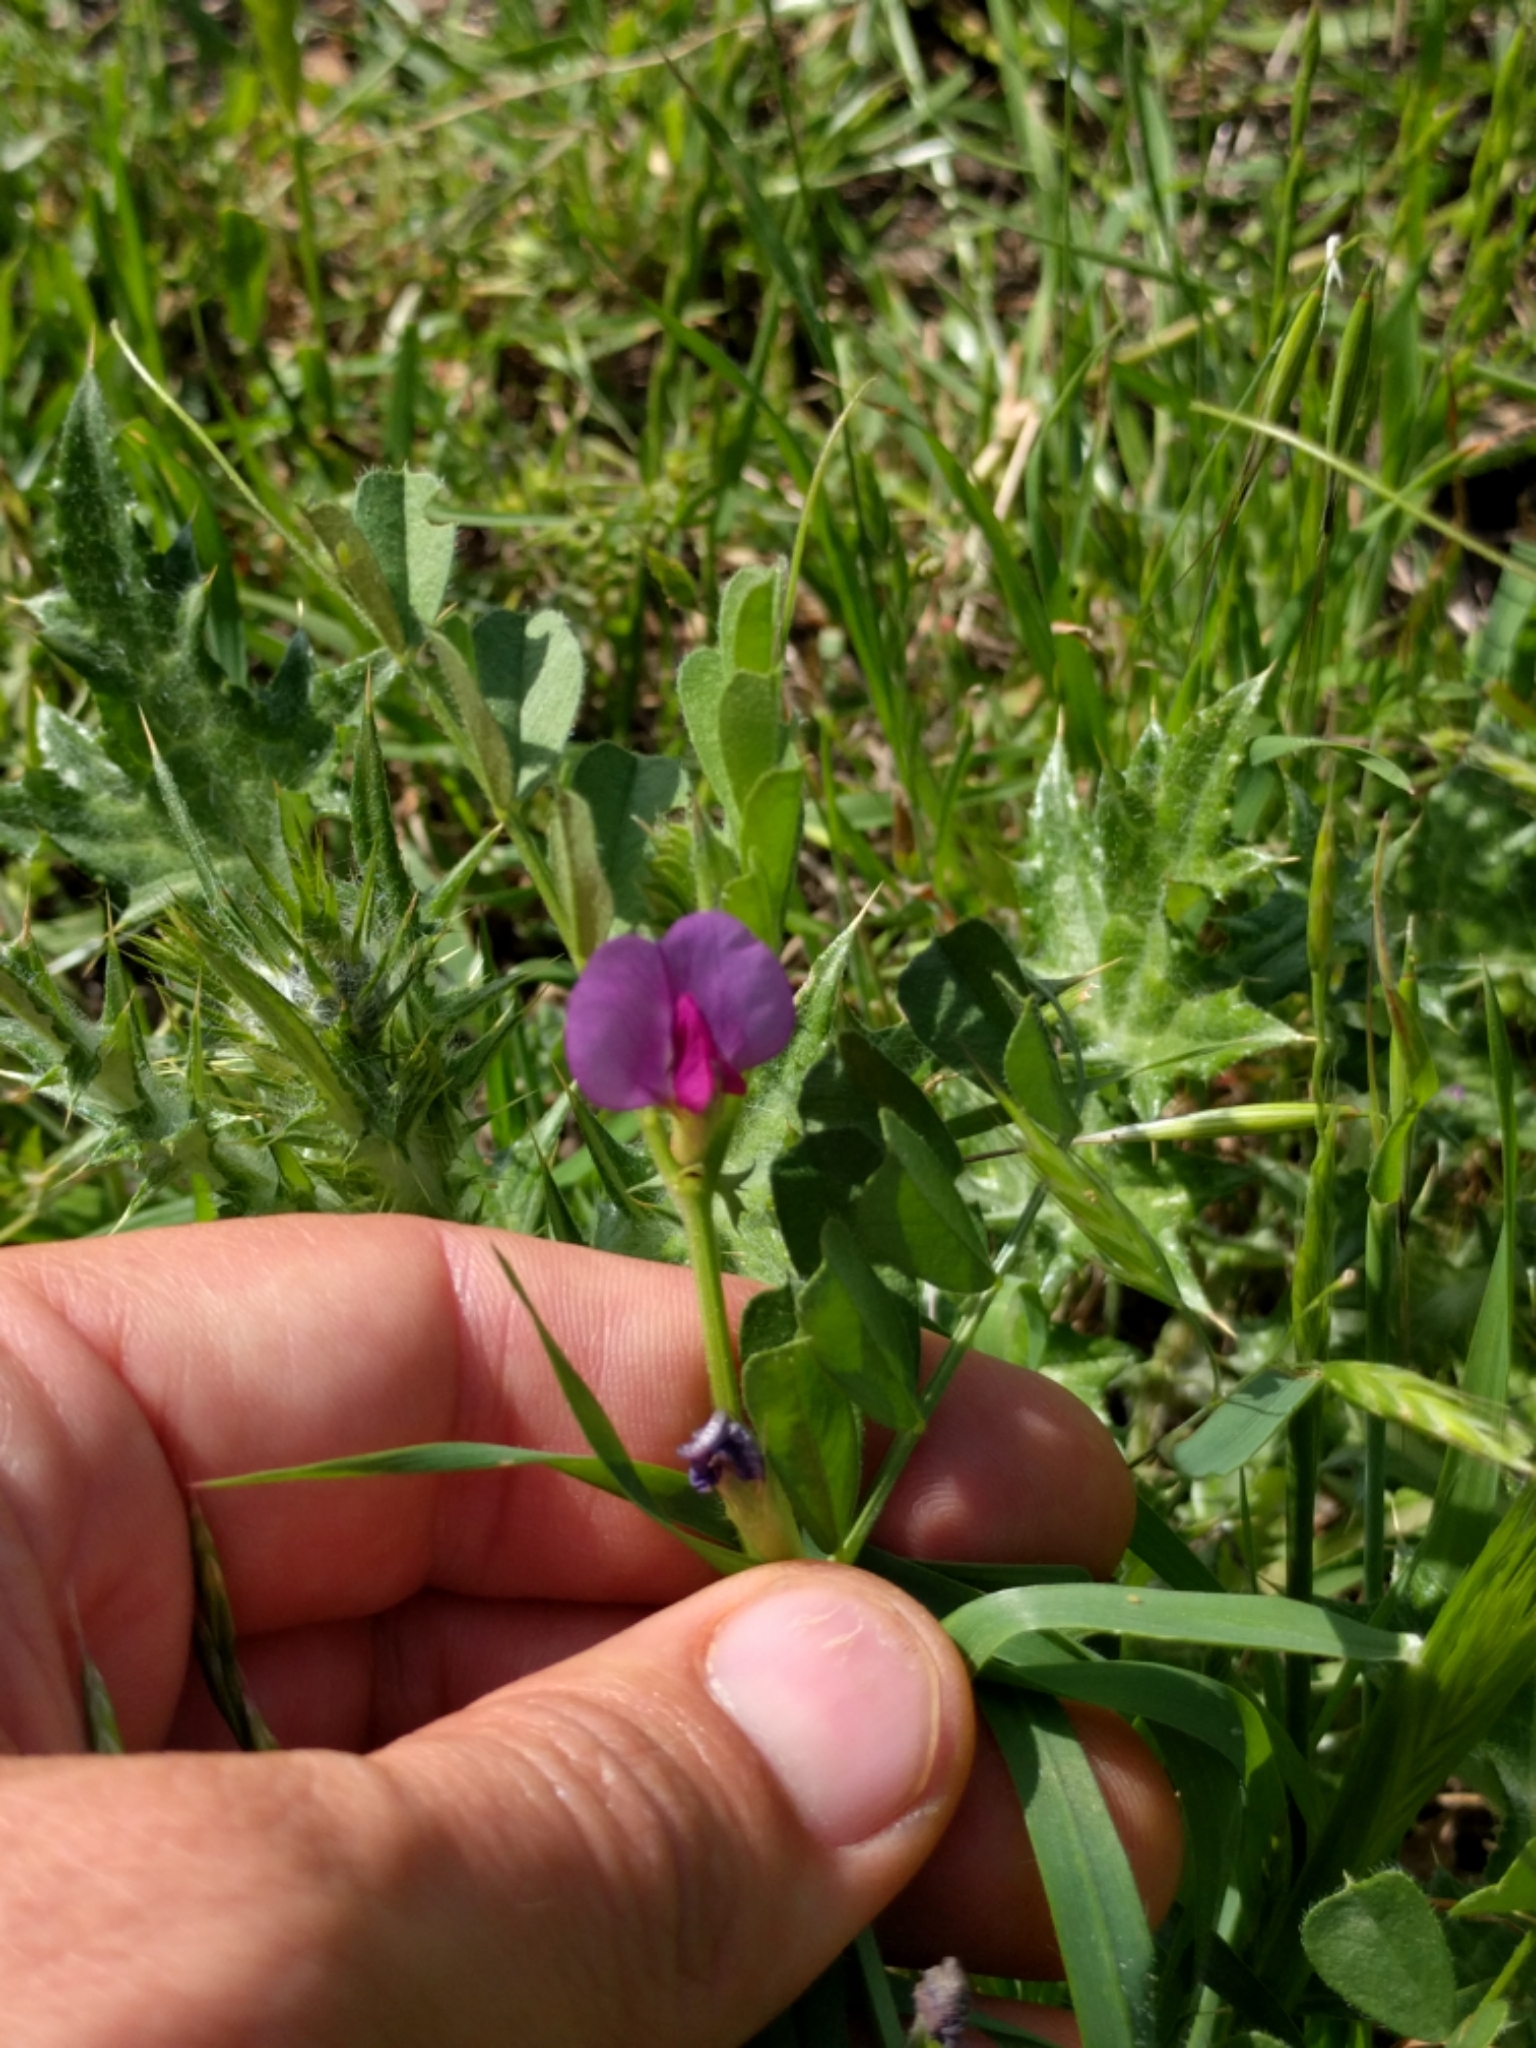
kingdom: Plantae
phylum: Tracheophyta
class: Magnoliopsida
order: Fabales
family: Fabaceae
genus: Vicia
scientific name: Vicia sativa
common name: Garden vetch
